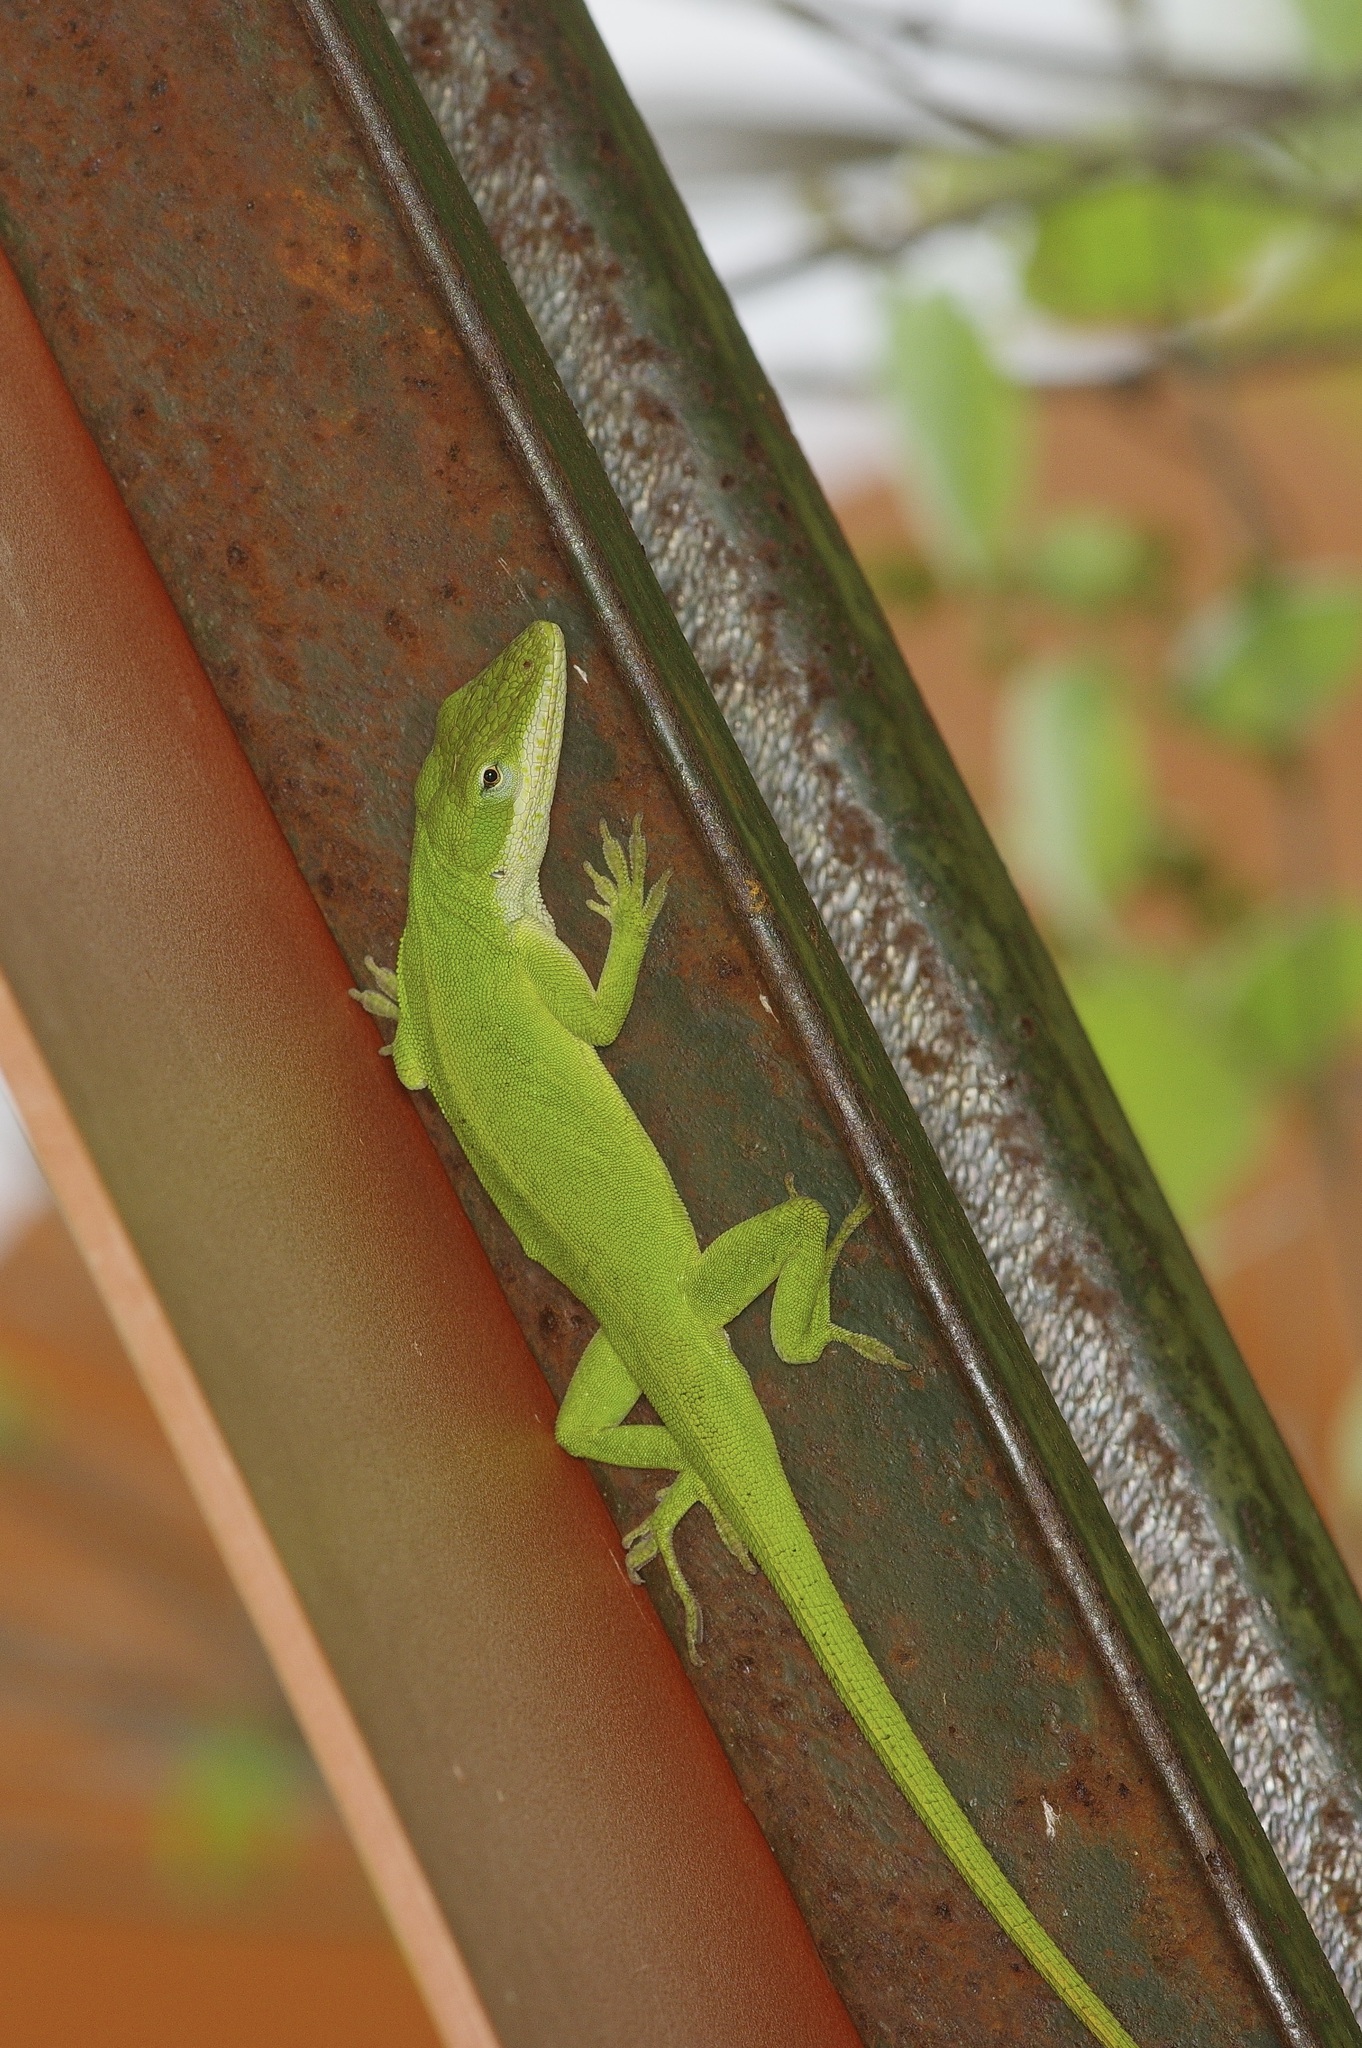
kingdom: Animalia
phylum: Chordata
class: Squamata
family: Dactyloidae
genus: Anolis
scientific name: Anolis carolinensis
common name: Green anole
